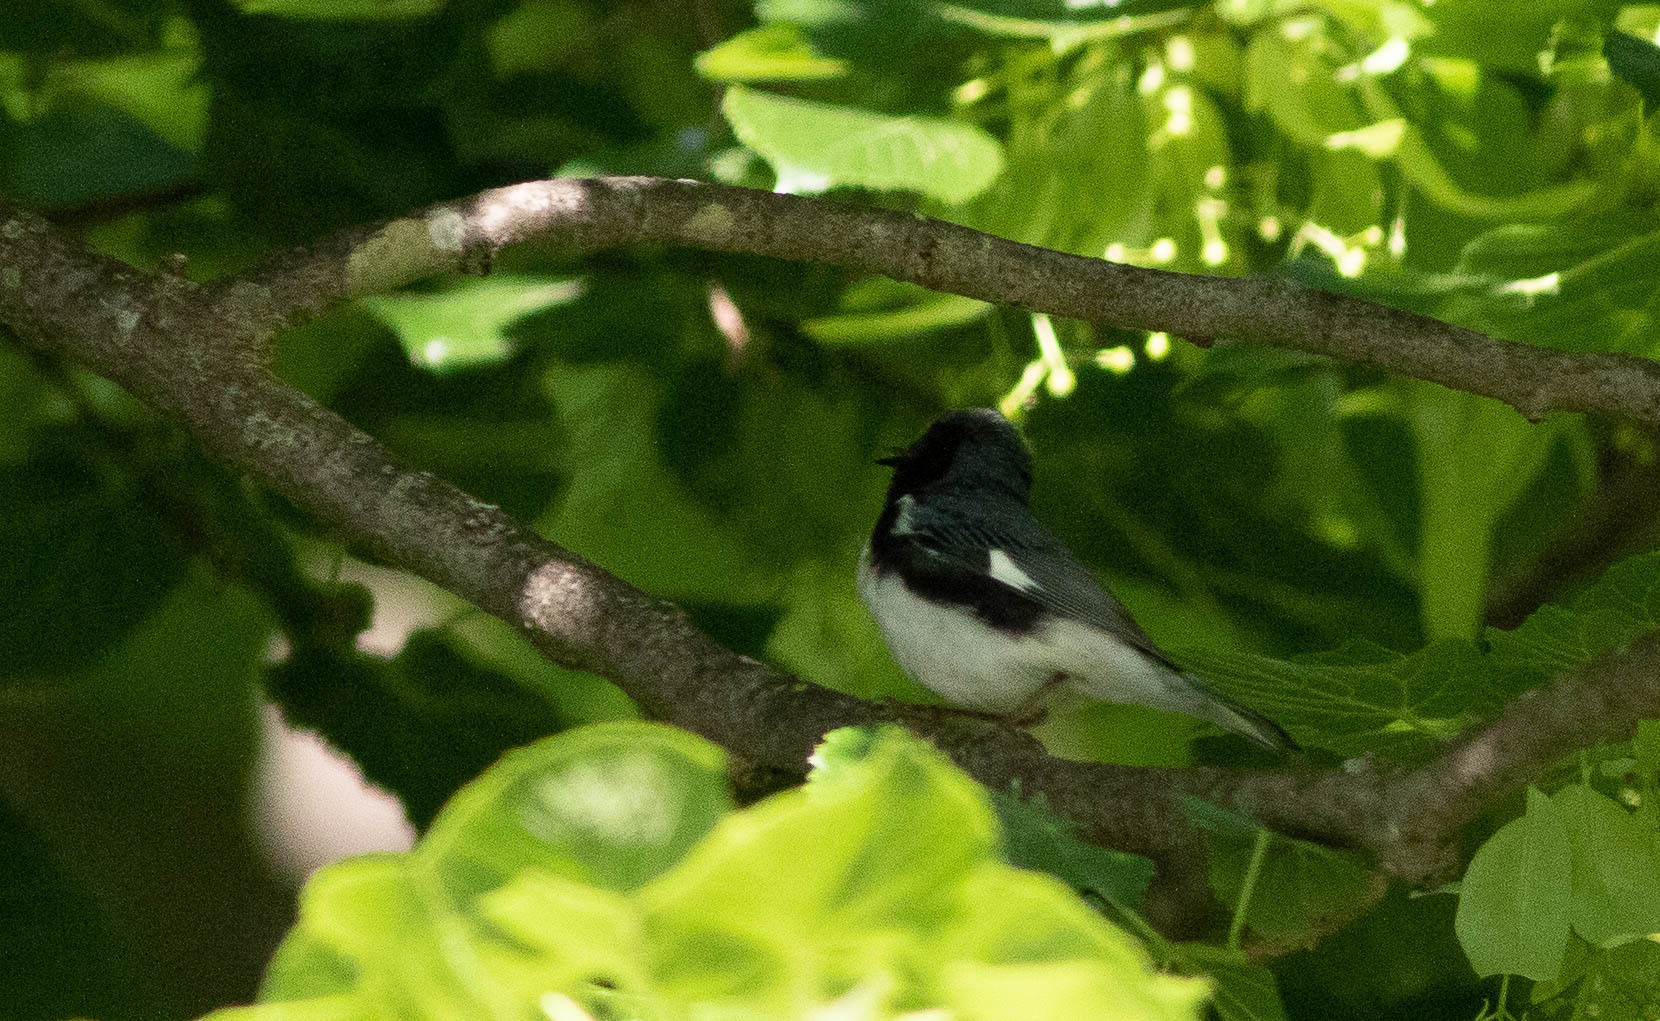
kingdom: Animalia
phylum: Chordata
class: Aves
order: Passeriformes
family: Parulidae
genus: Setophaga
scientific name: Setophaga caerulescens
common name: Black-throated blue warbler
